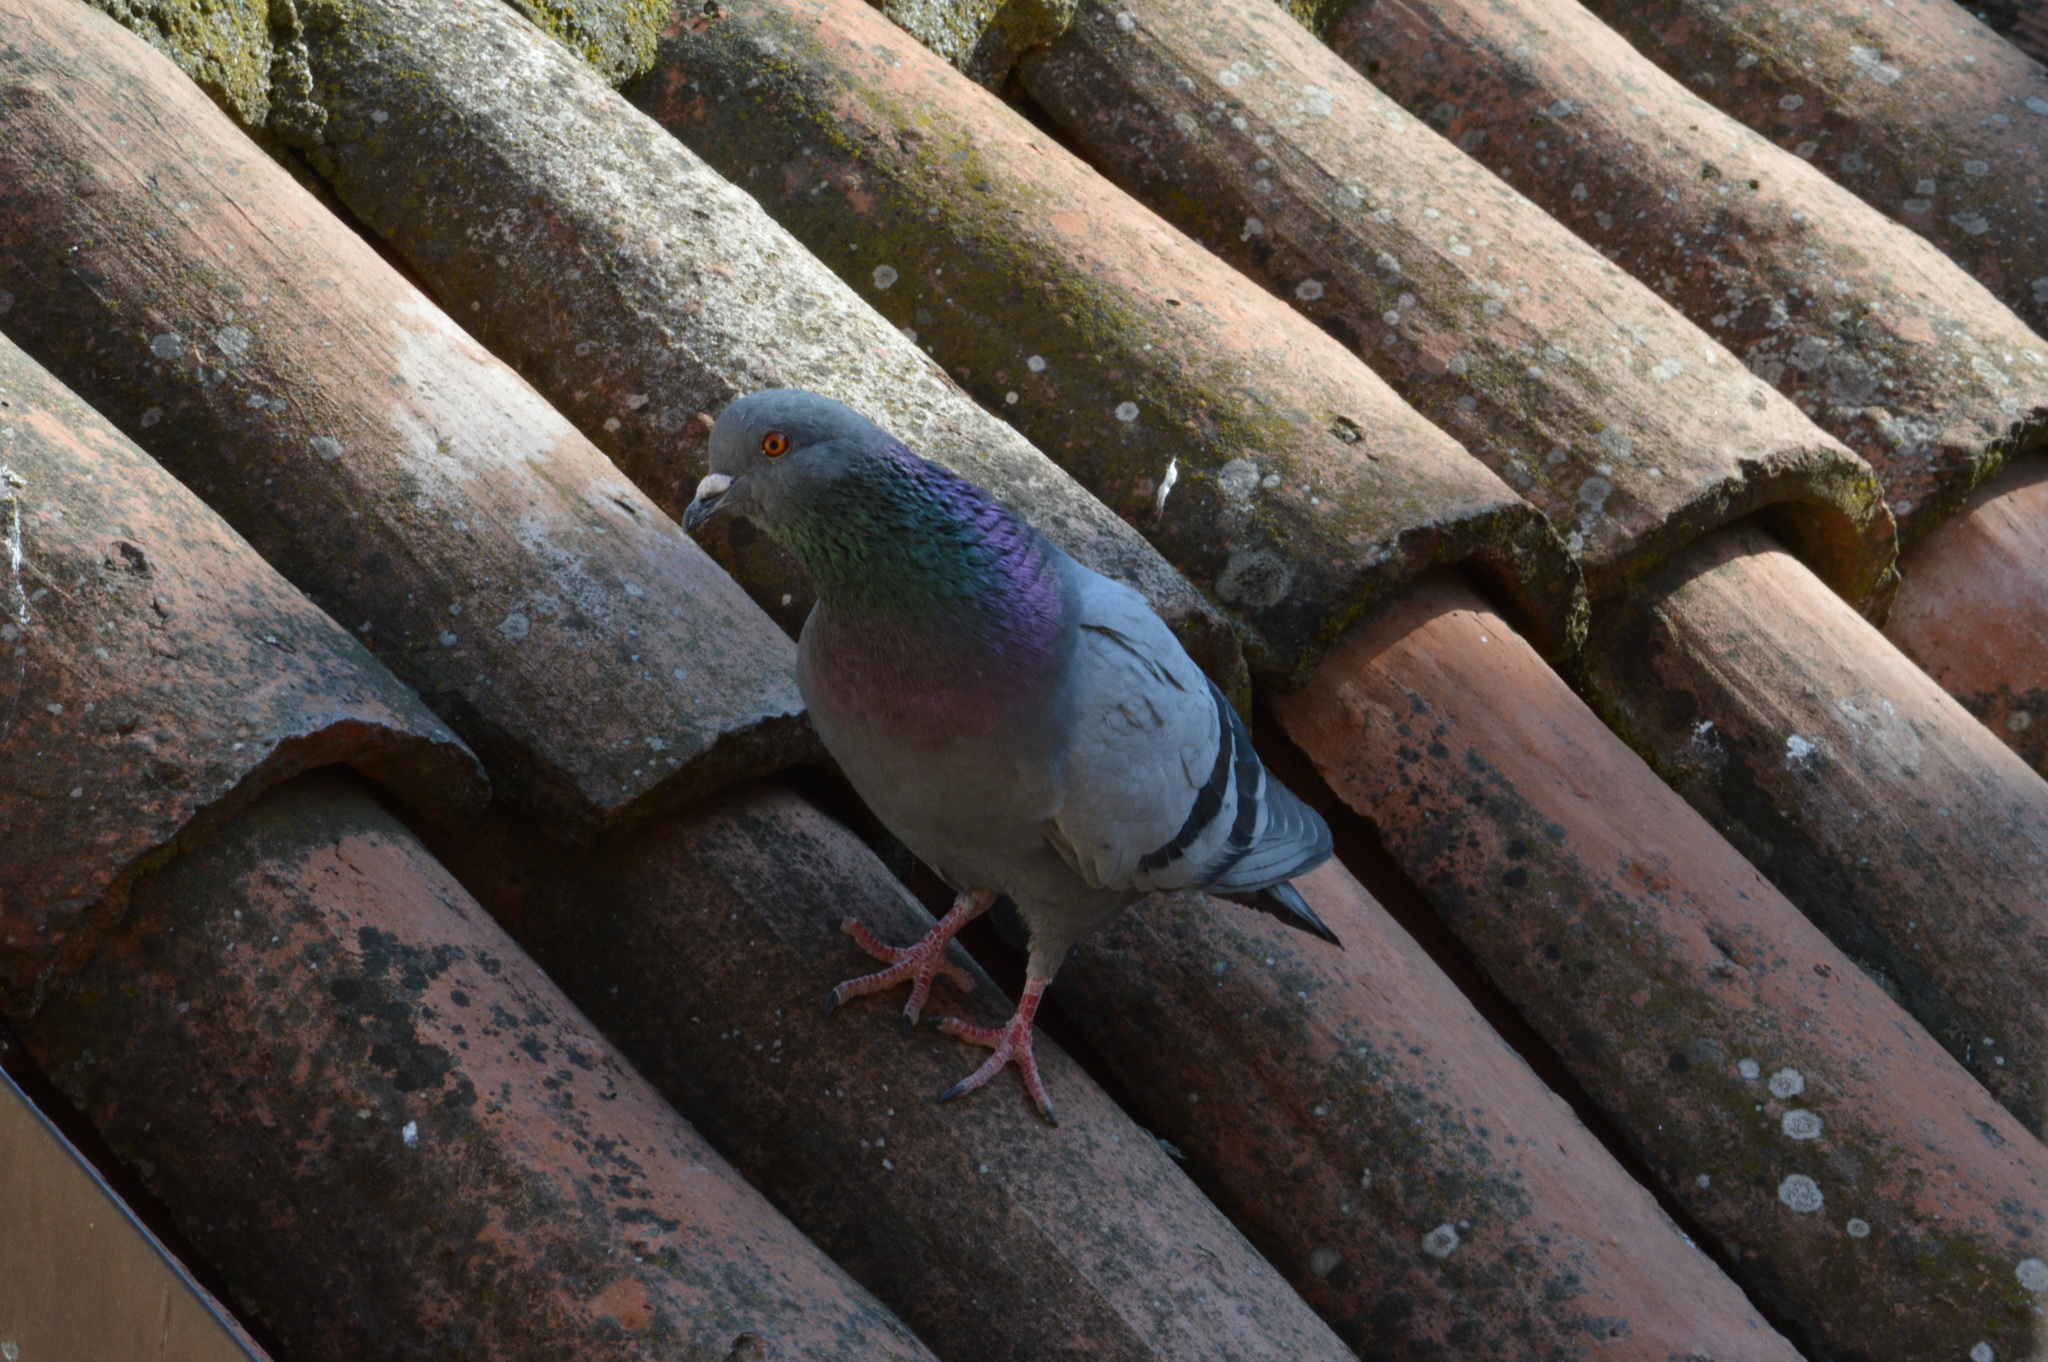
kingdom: Animalia
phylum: Chordata
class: Aves
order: Columbiformes
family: Columbidae
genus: Columba
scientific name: Columba livia
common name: Rock pigeon
